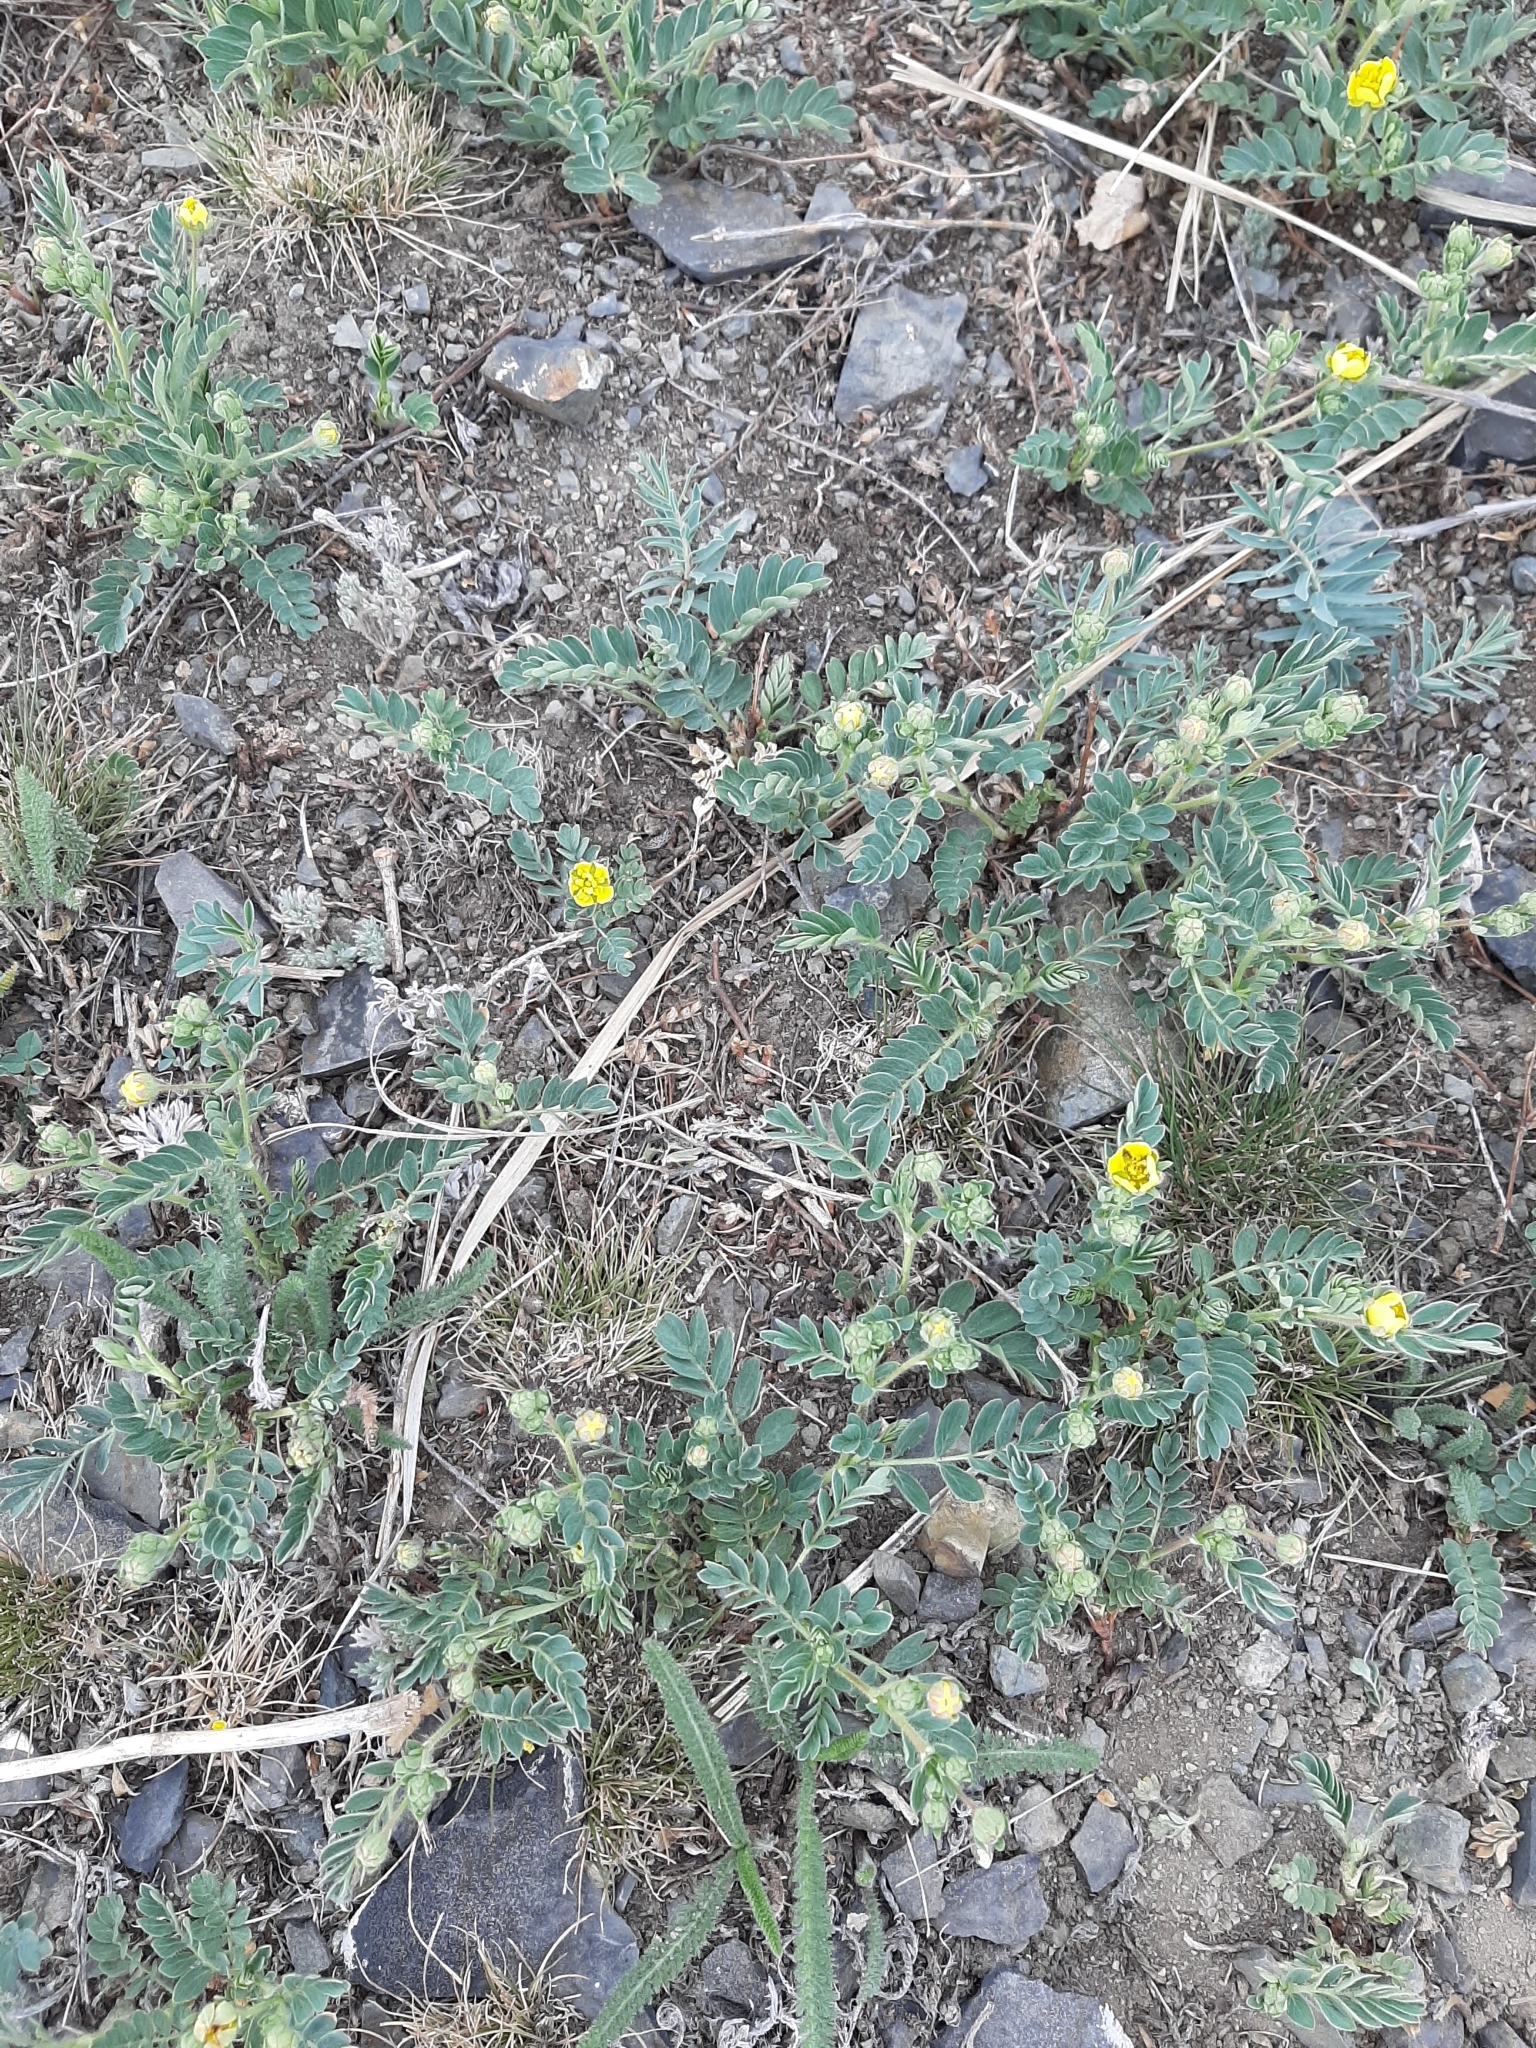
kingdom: Plantae
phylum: Tracheophyta
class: Magnoliopsida
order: Rosales
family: Rosaceae
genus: Sibbaldianthe
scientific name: Sibbaldianthe bifurca
